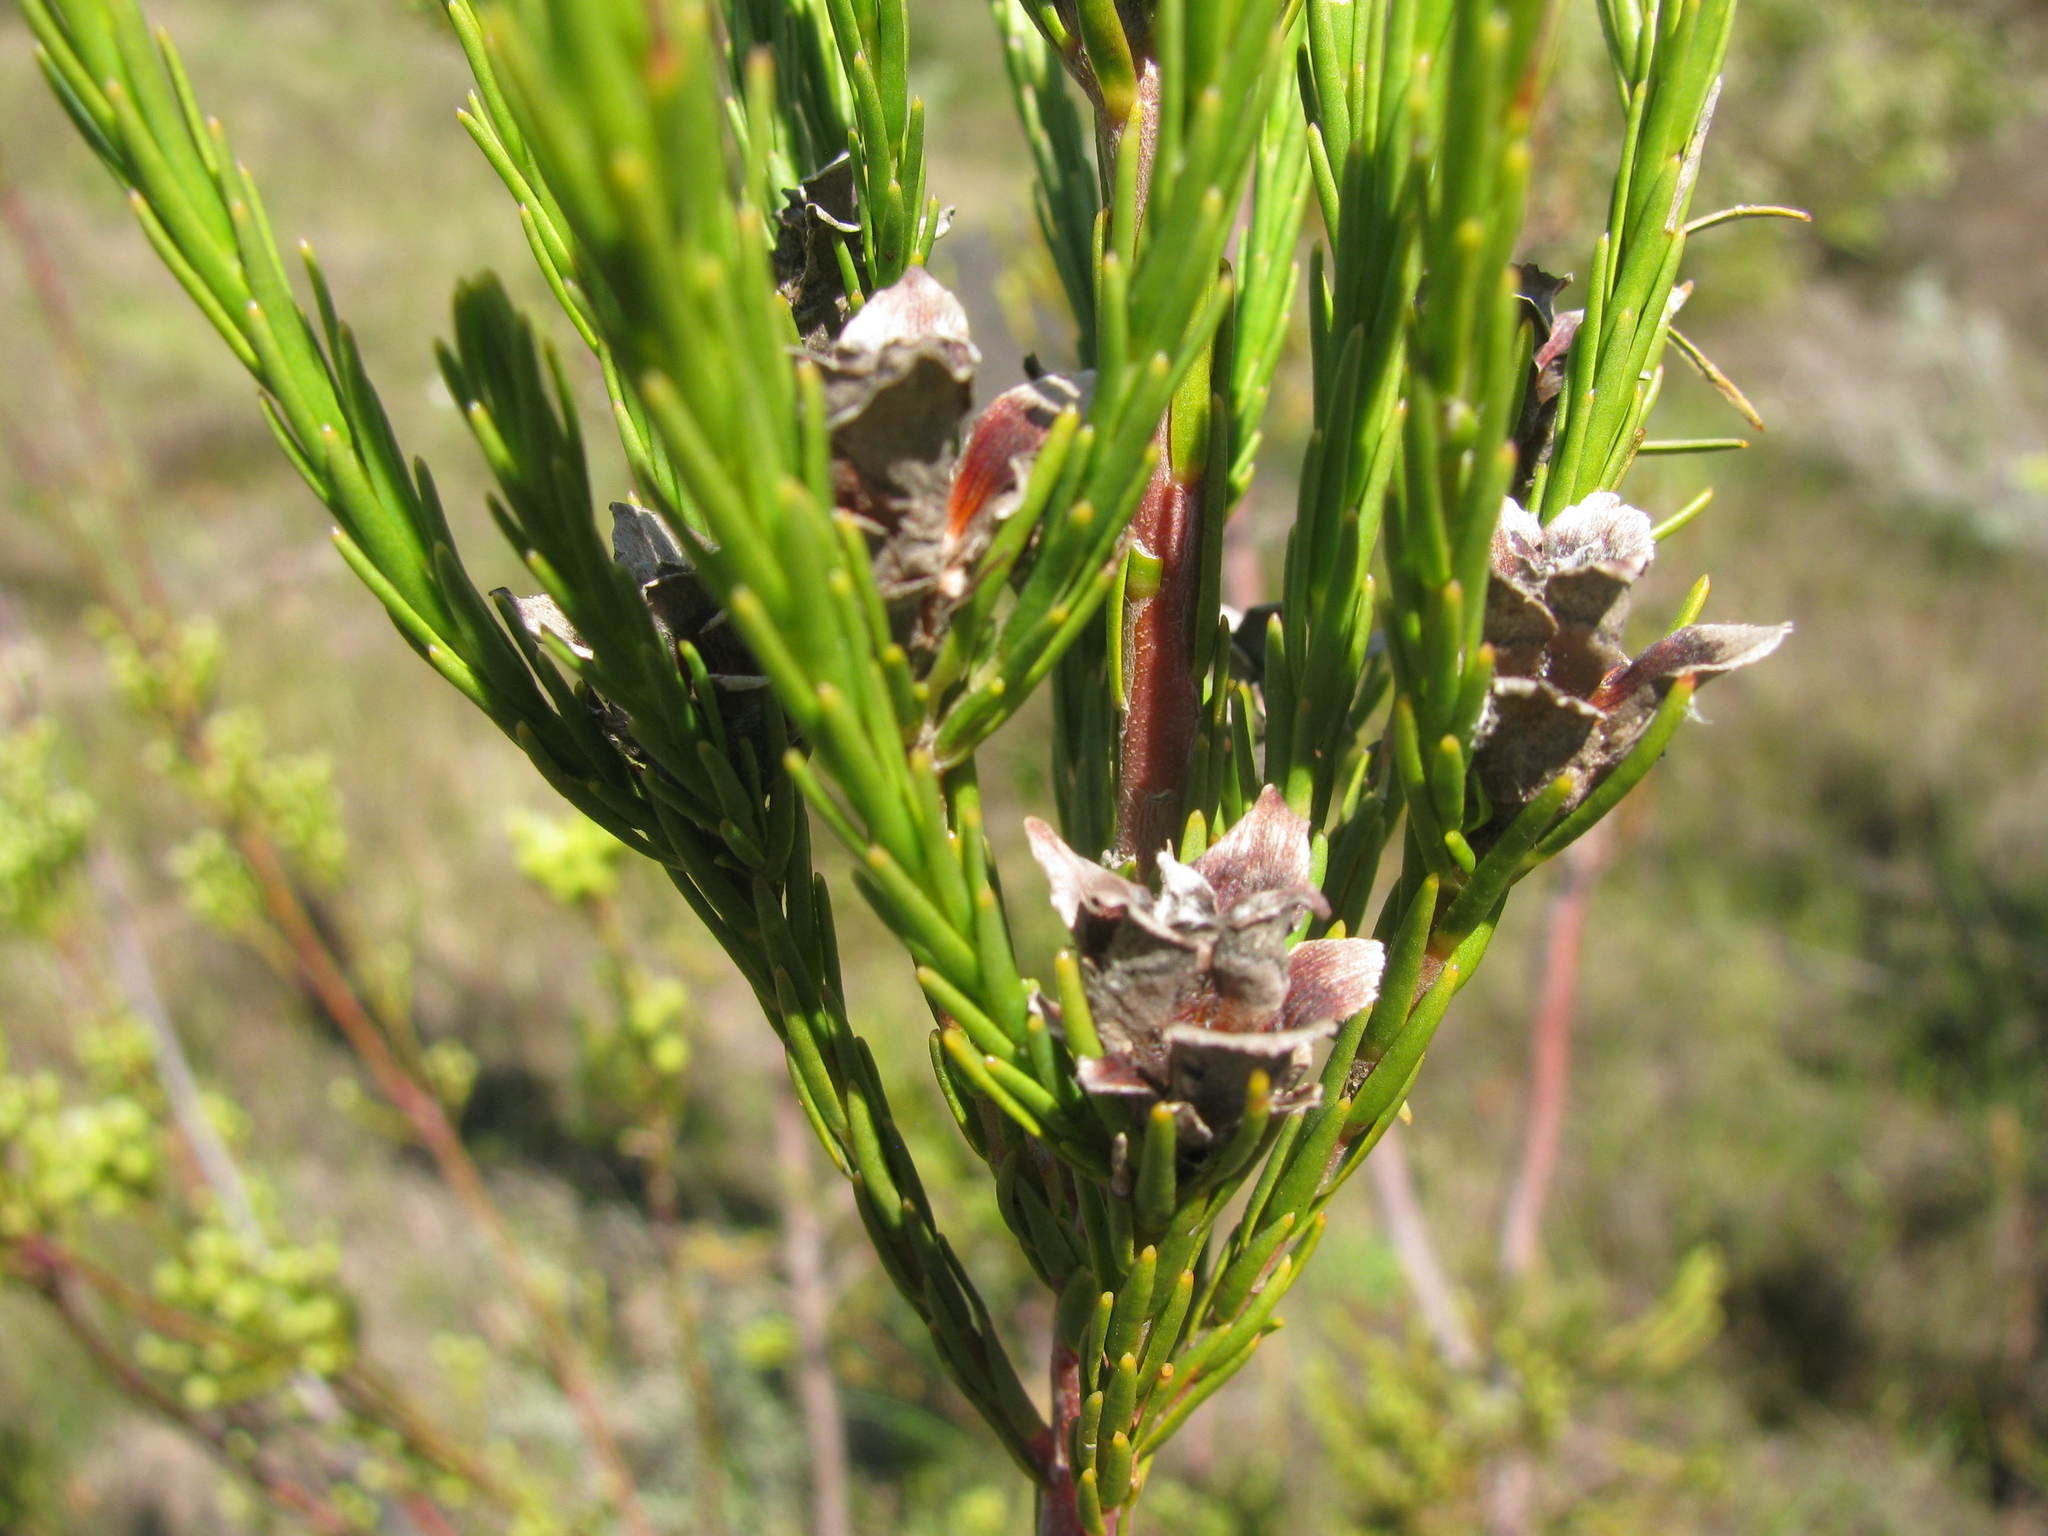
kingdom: Plantae
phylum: Tracheophyta
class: Magnoliopsida
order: Proteales
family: Proteaceae
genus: Leucadendron
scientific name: Leucadendron corymbosum
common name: Swartveld conebush
